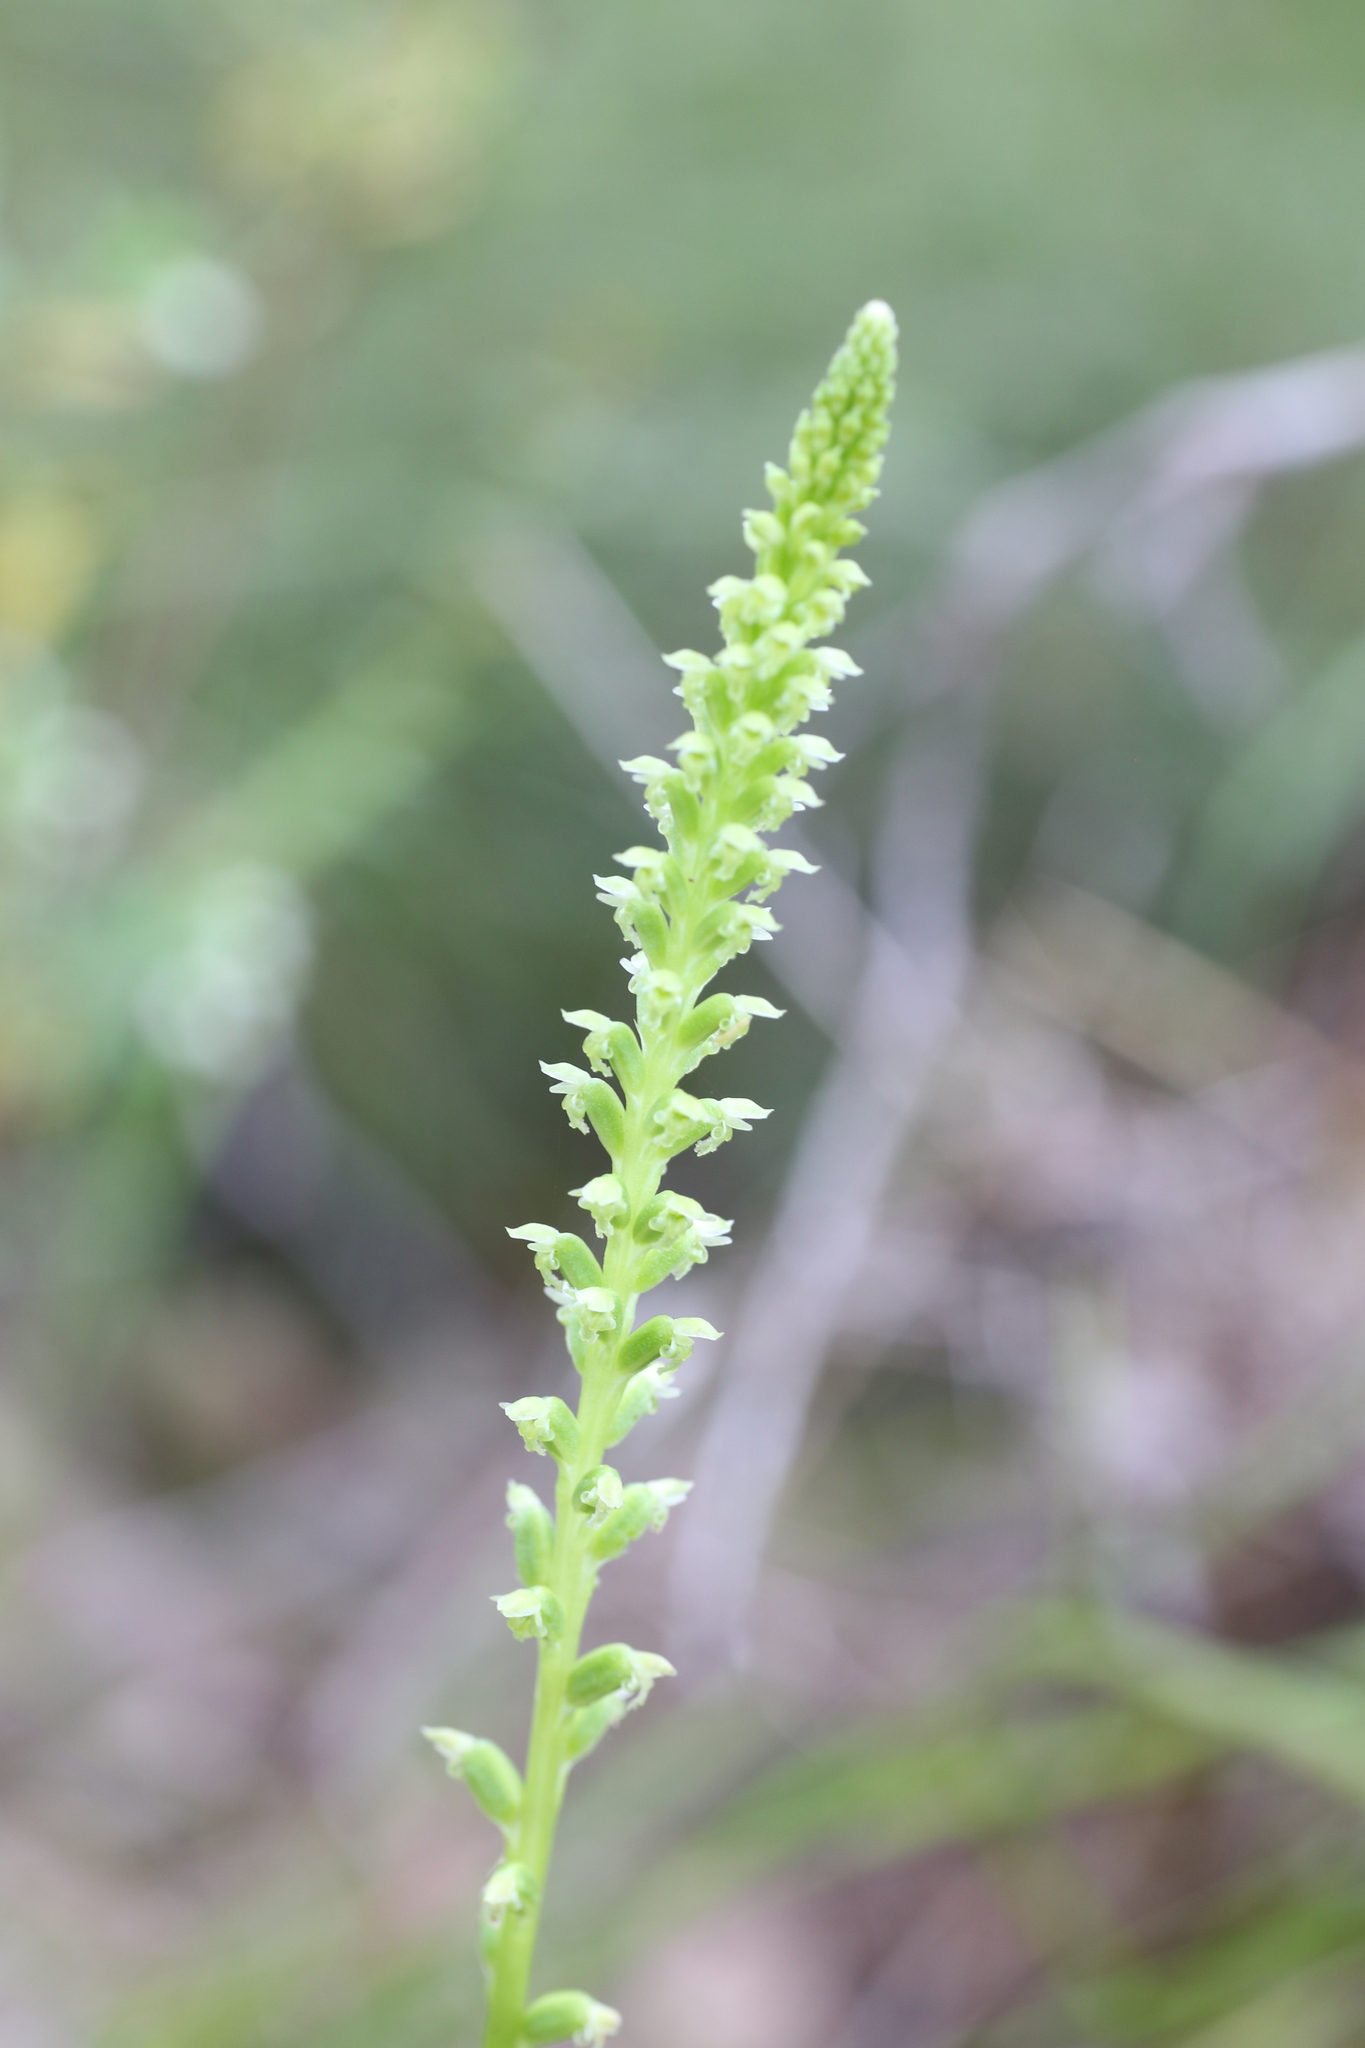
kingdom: Plantae
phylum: Tracheophyta
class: Liliopsida
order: Asparagales
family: Orchidaceae
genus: Microtis
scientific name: Microtis media
